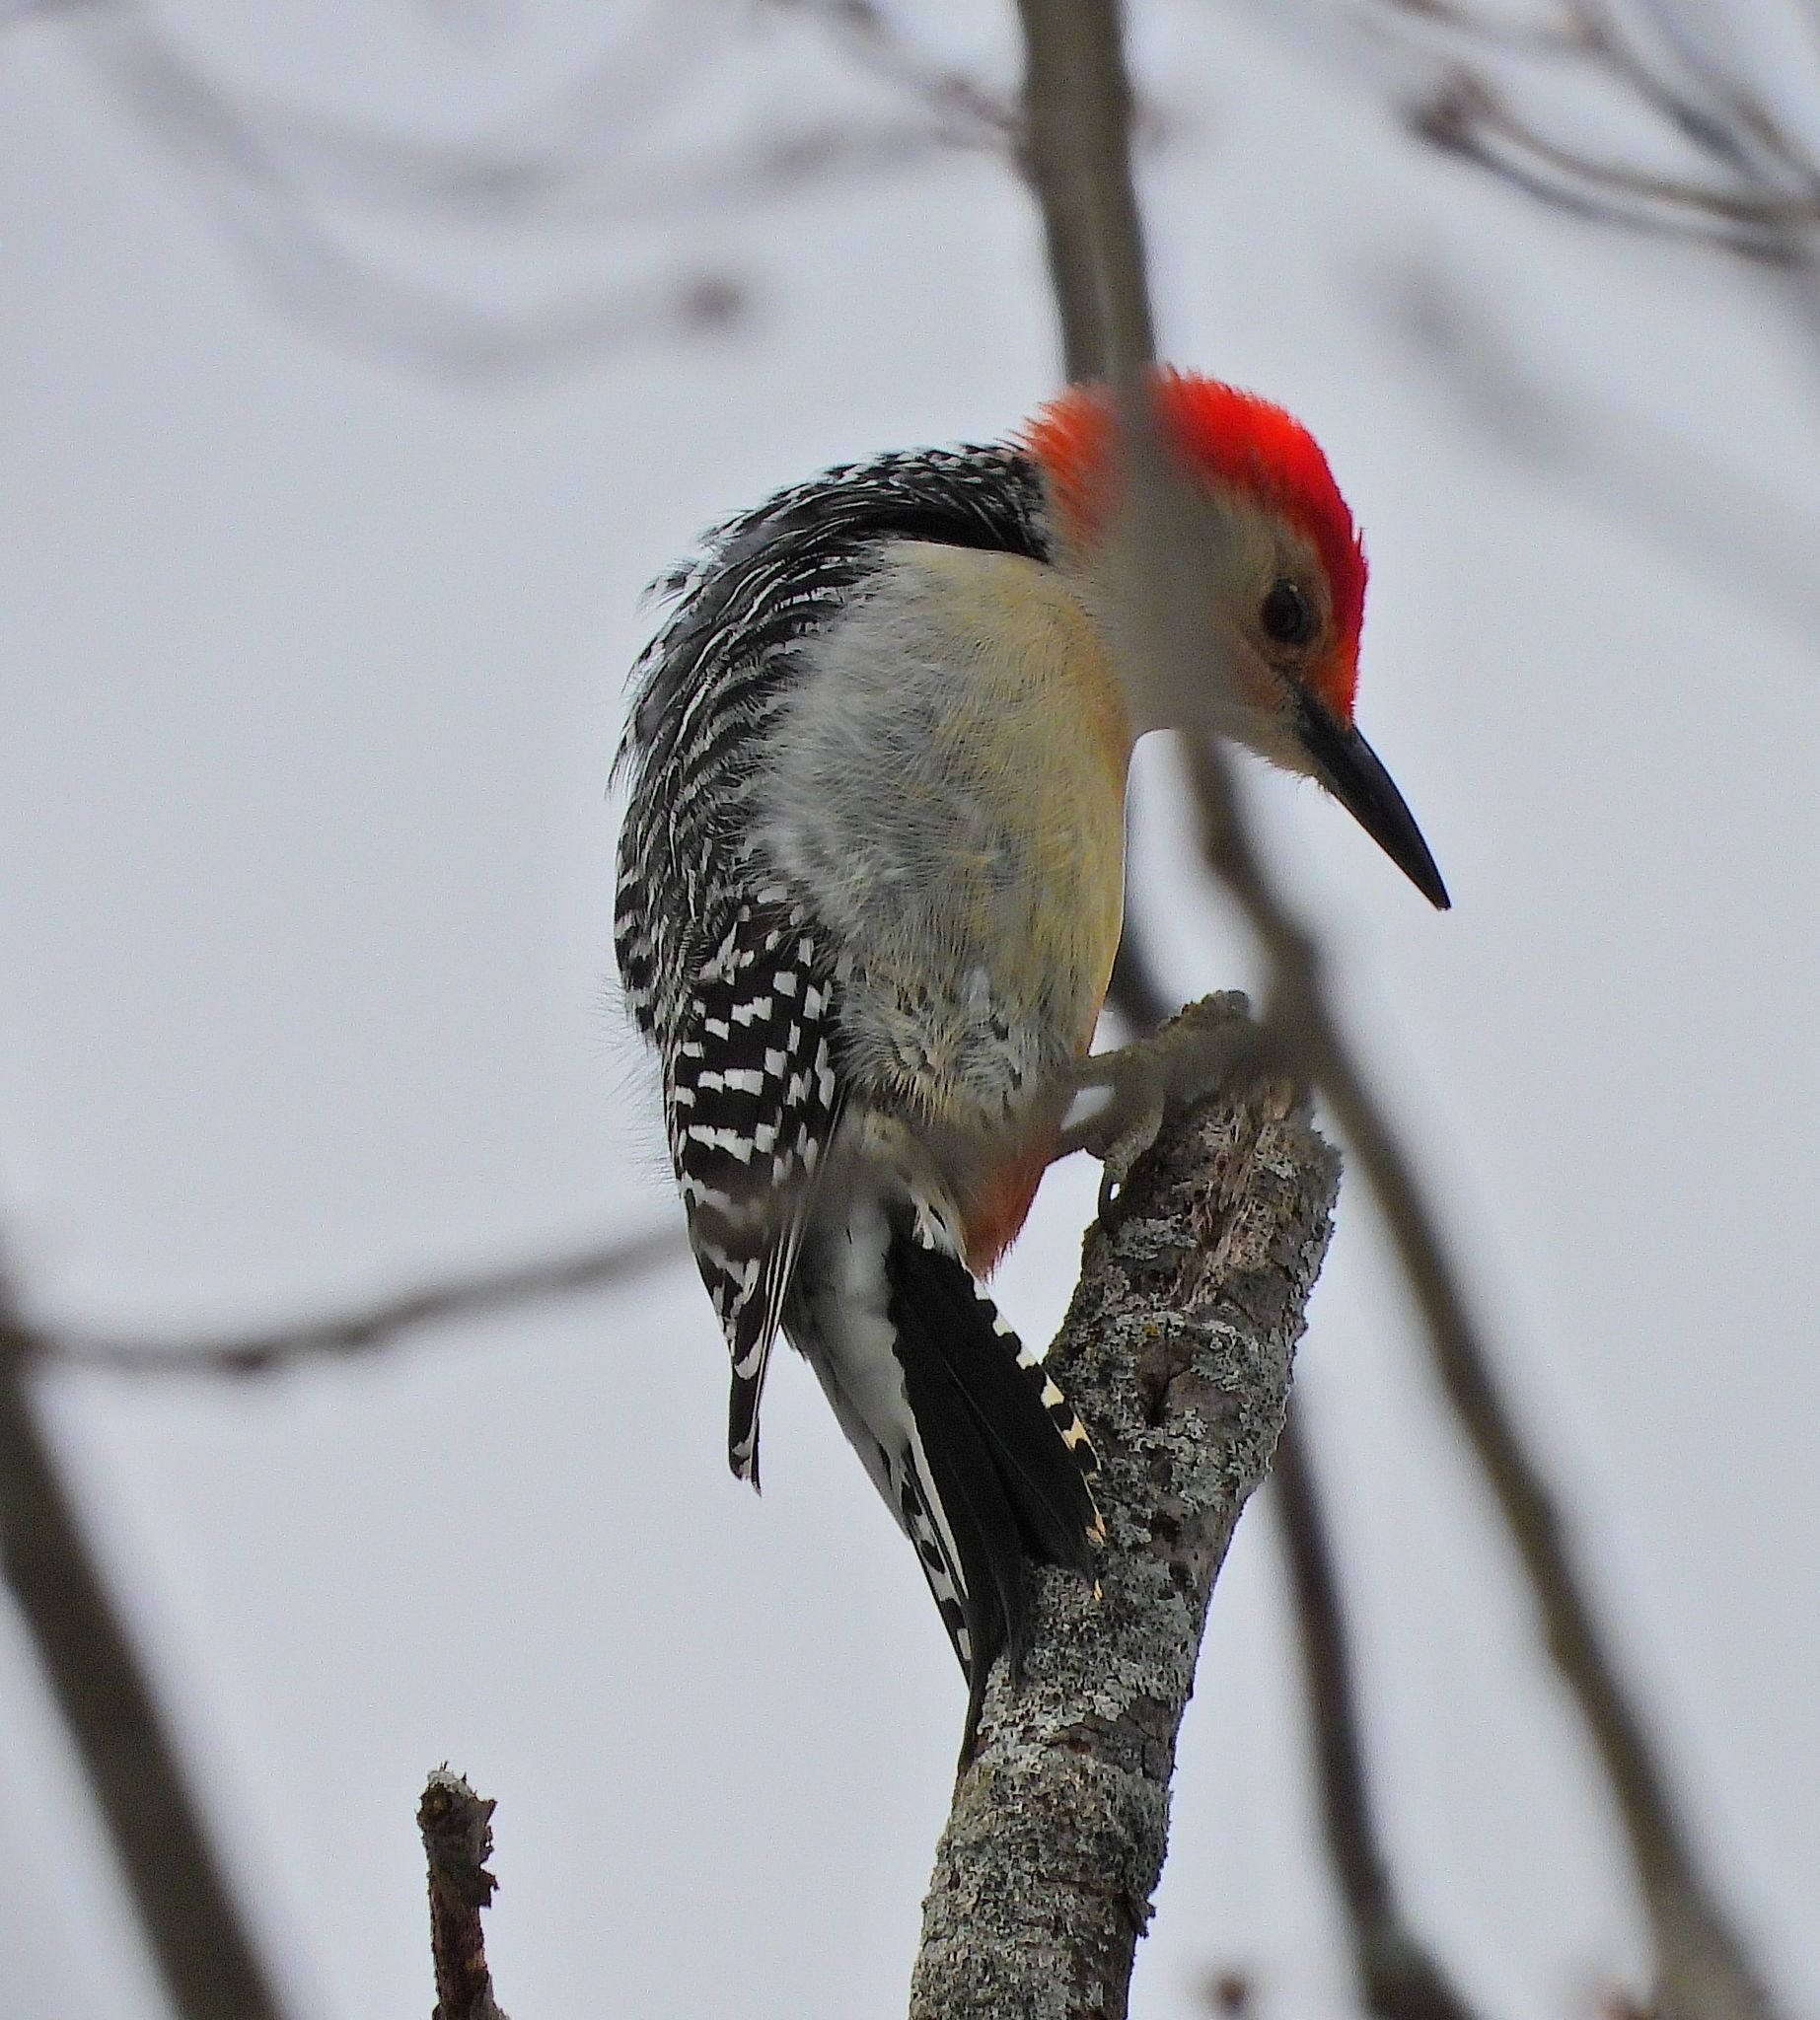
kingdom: Animalia
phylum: Chordata
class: Aves
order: Piciformes
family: Picidae
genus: Melanerpes
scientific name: Melanerpes carolinus
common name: Red-bellied woodpecker
